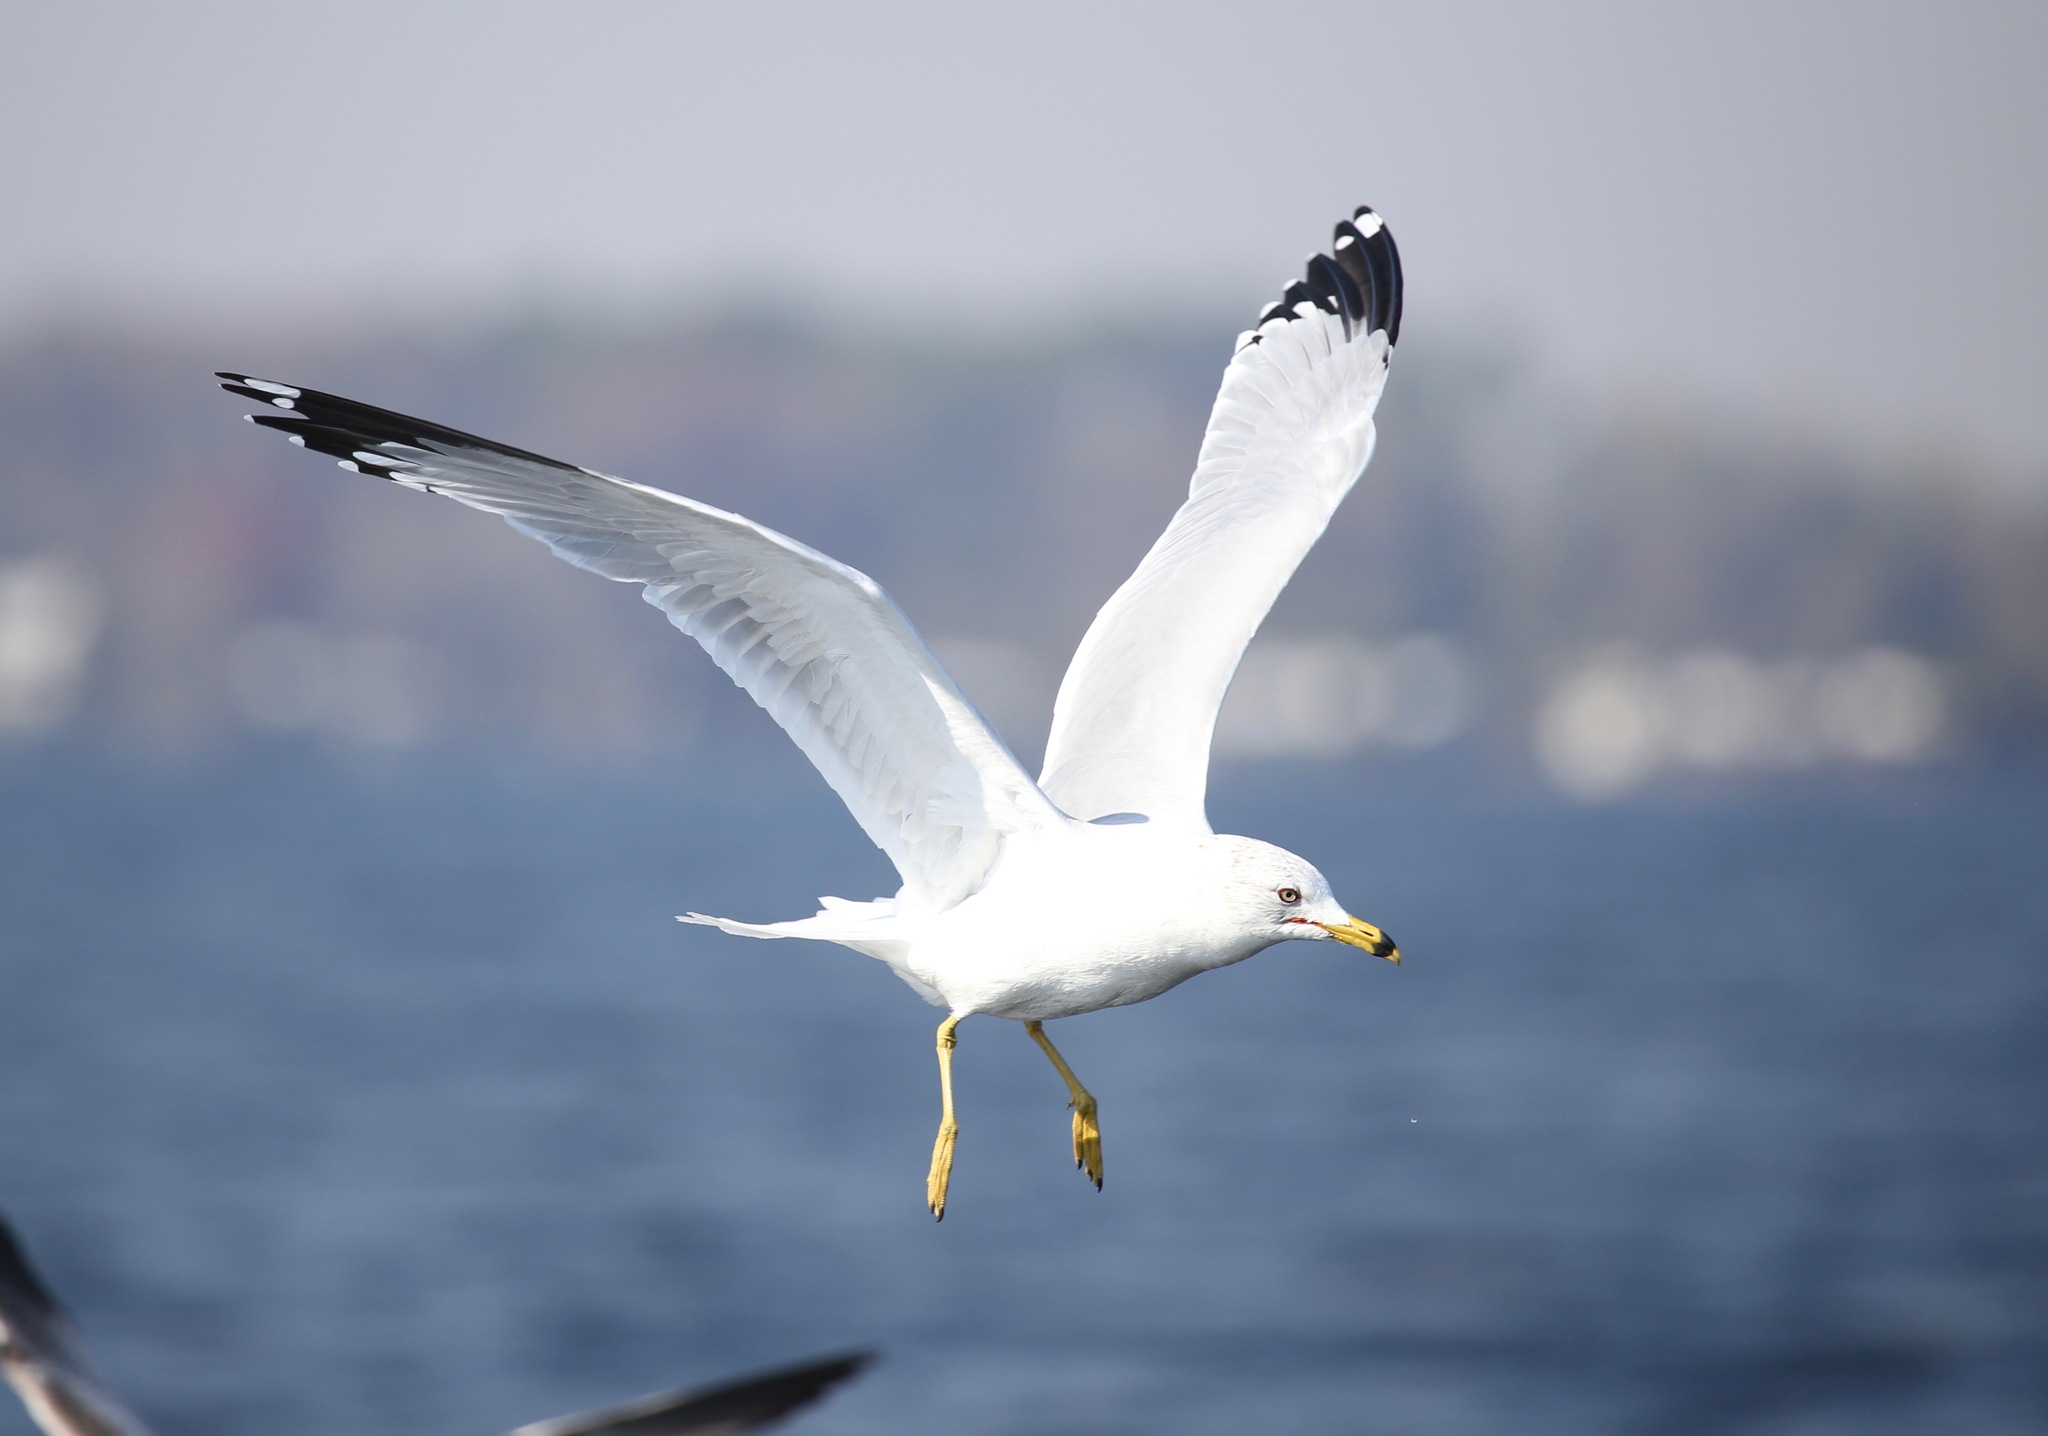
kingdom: Animalia
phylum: Chordata
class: Aves
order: Charadriiformes
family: Laridae
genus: Larus
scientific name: Larus delawarensis
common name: Ring-billed gull
